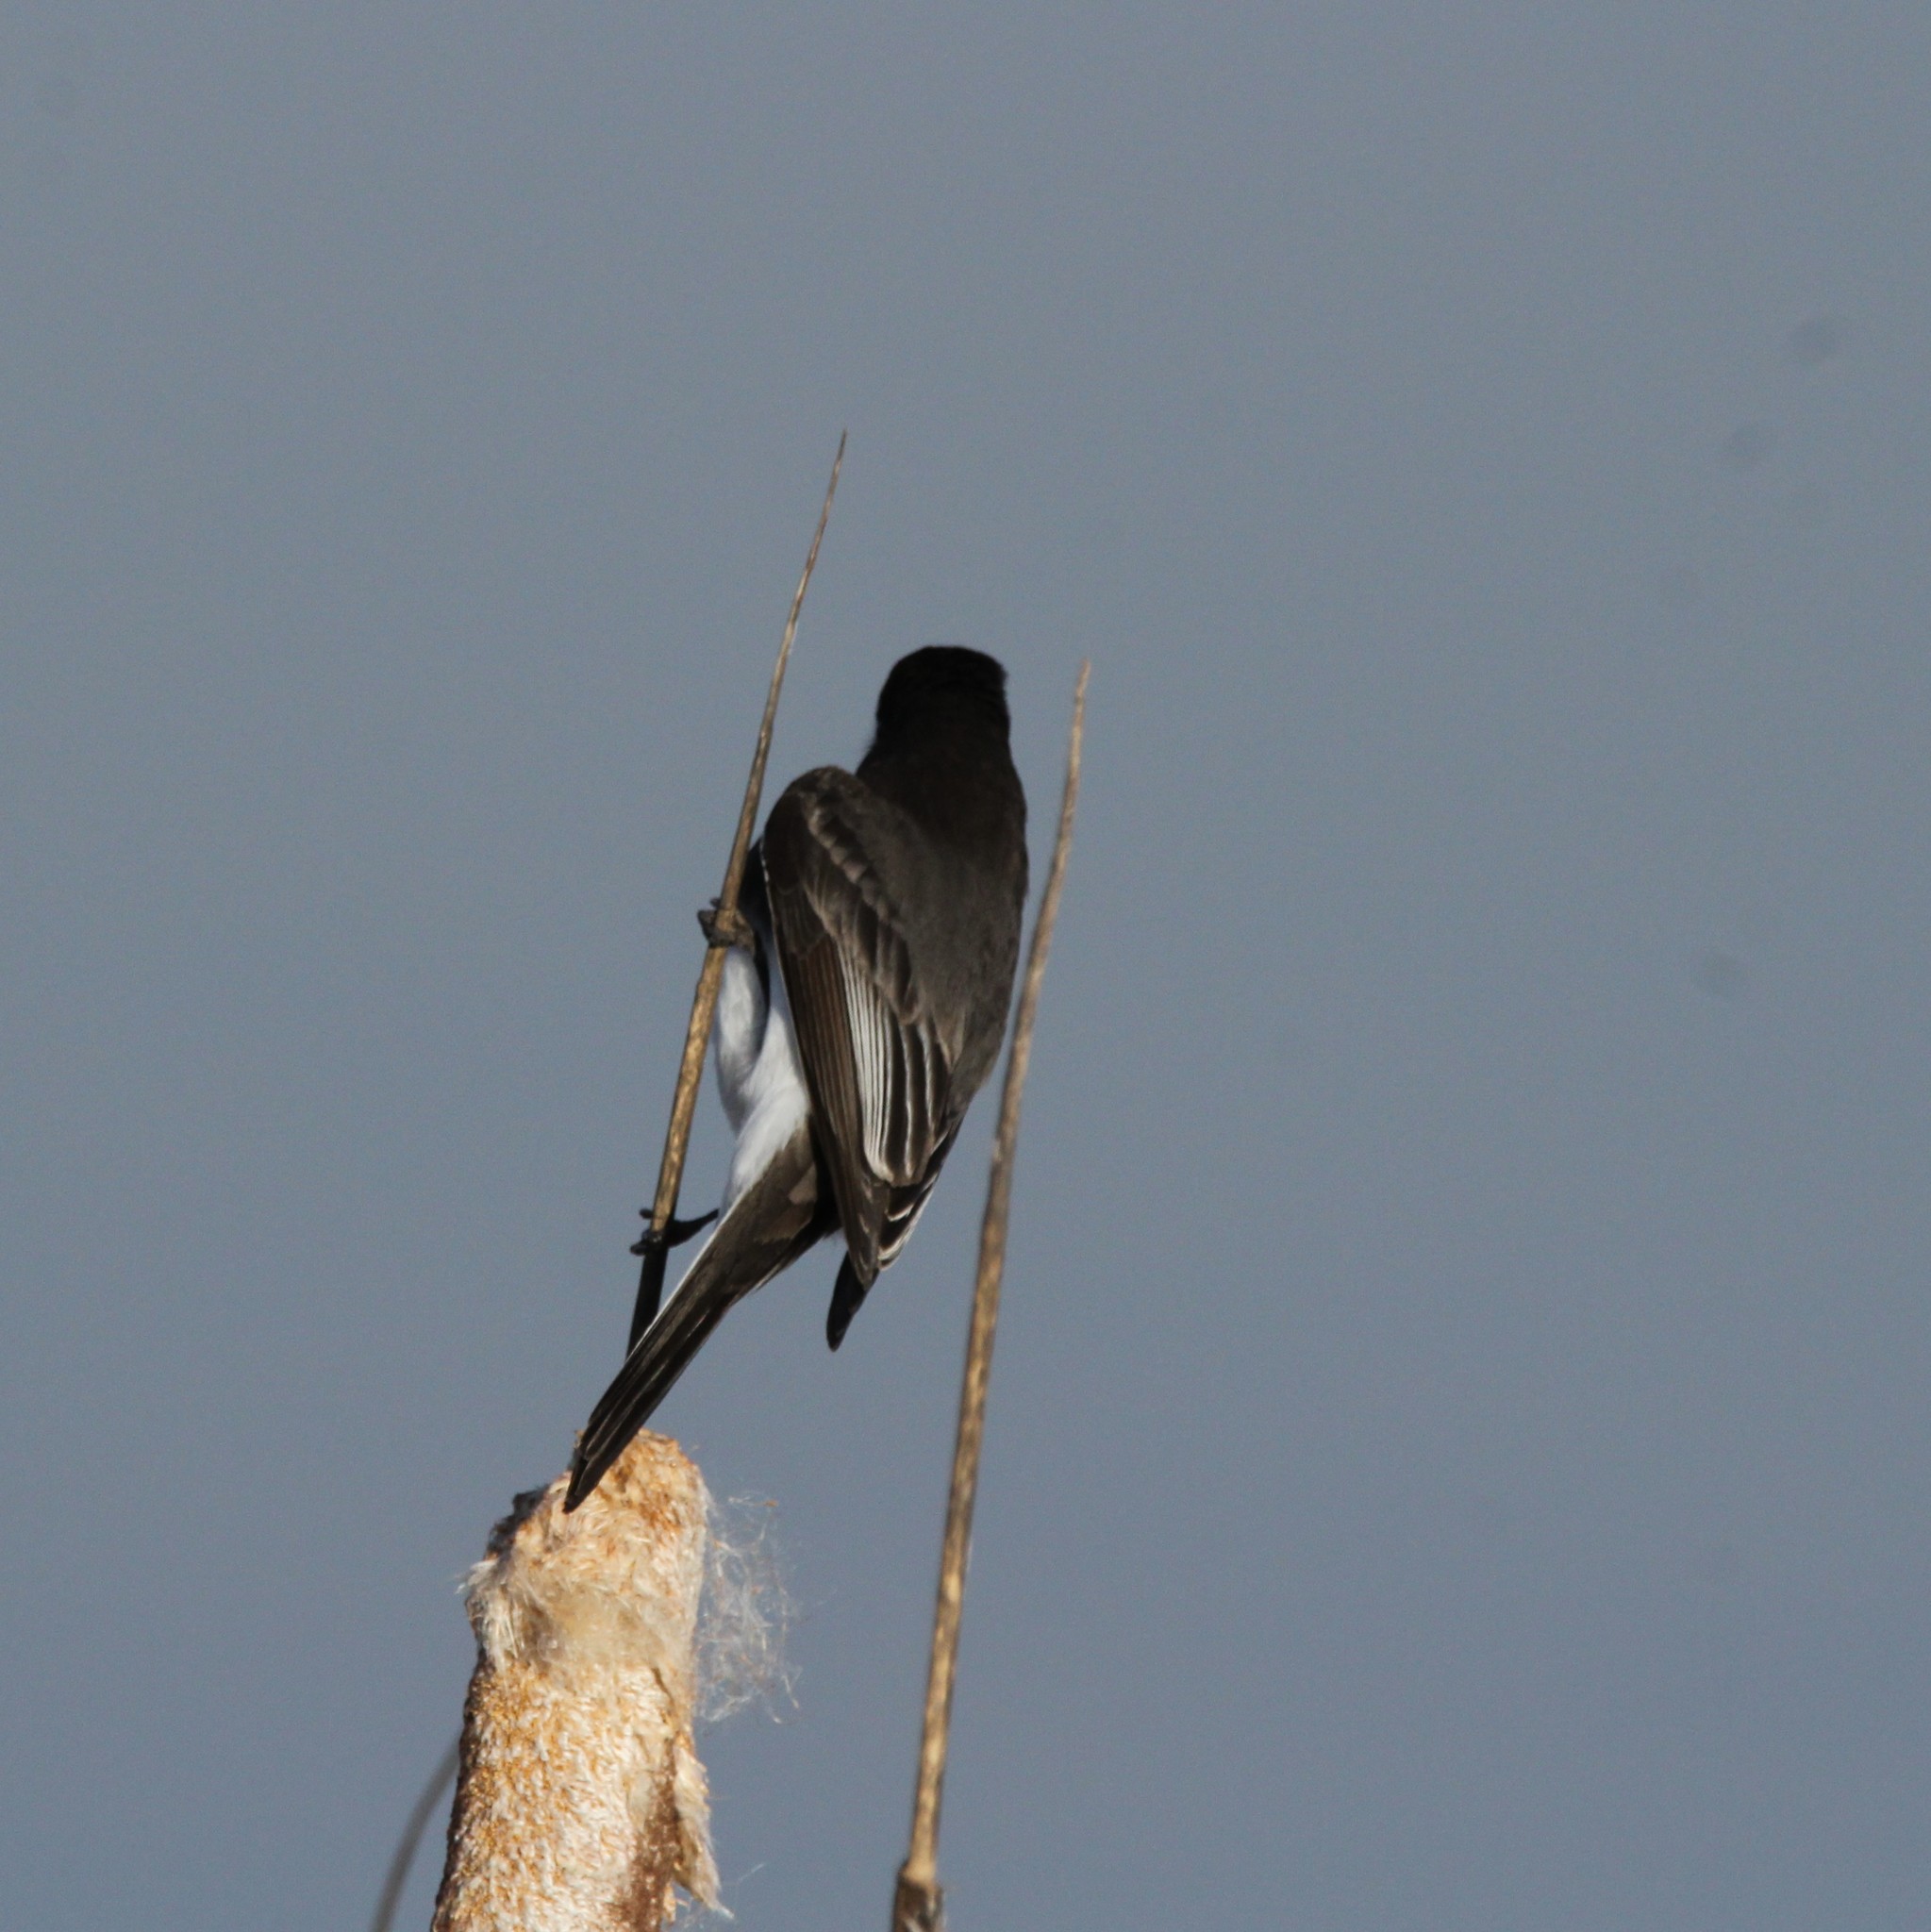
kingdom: Animalia
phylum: Chordata
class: Aves
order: Passeriformes
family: Tyrannidae
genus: Sayornis
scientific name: Sayornis nigricans
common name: Black phoebe
